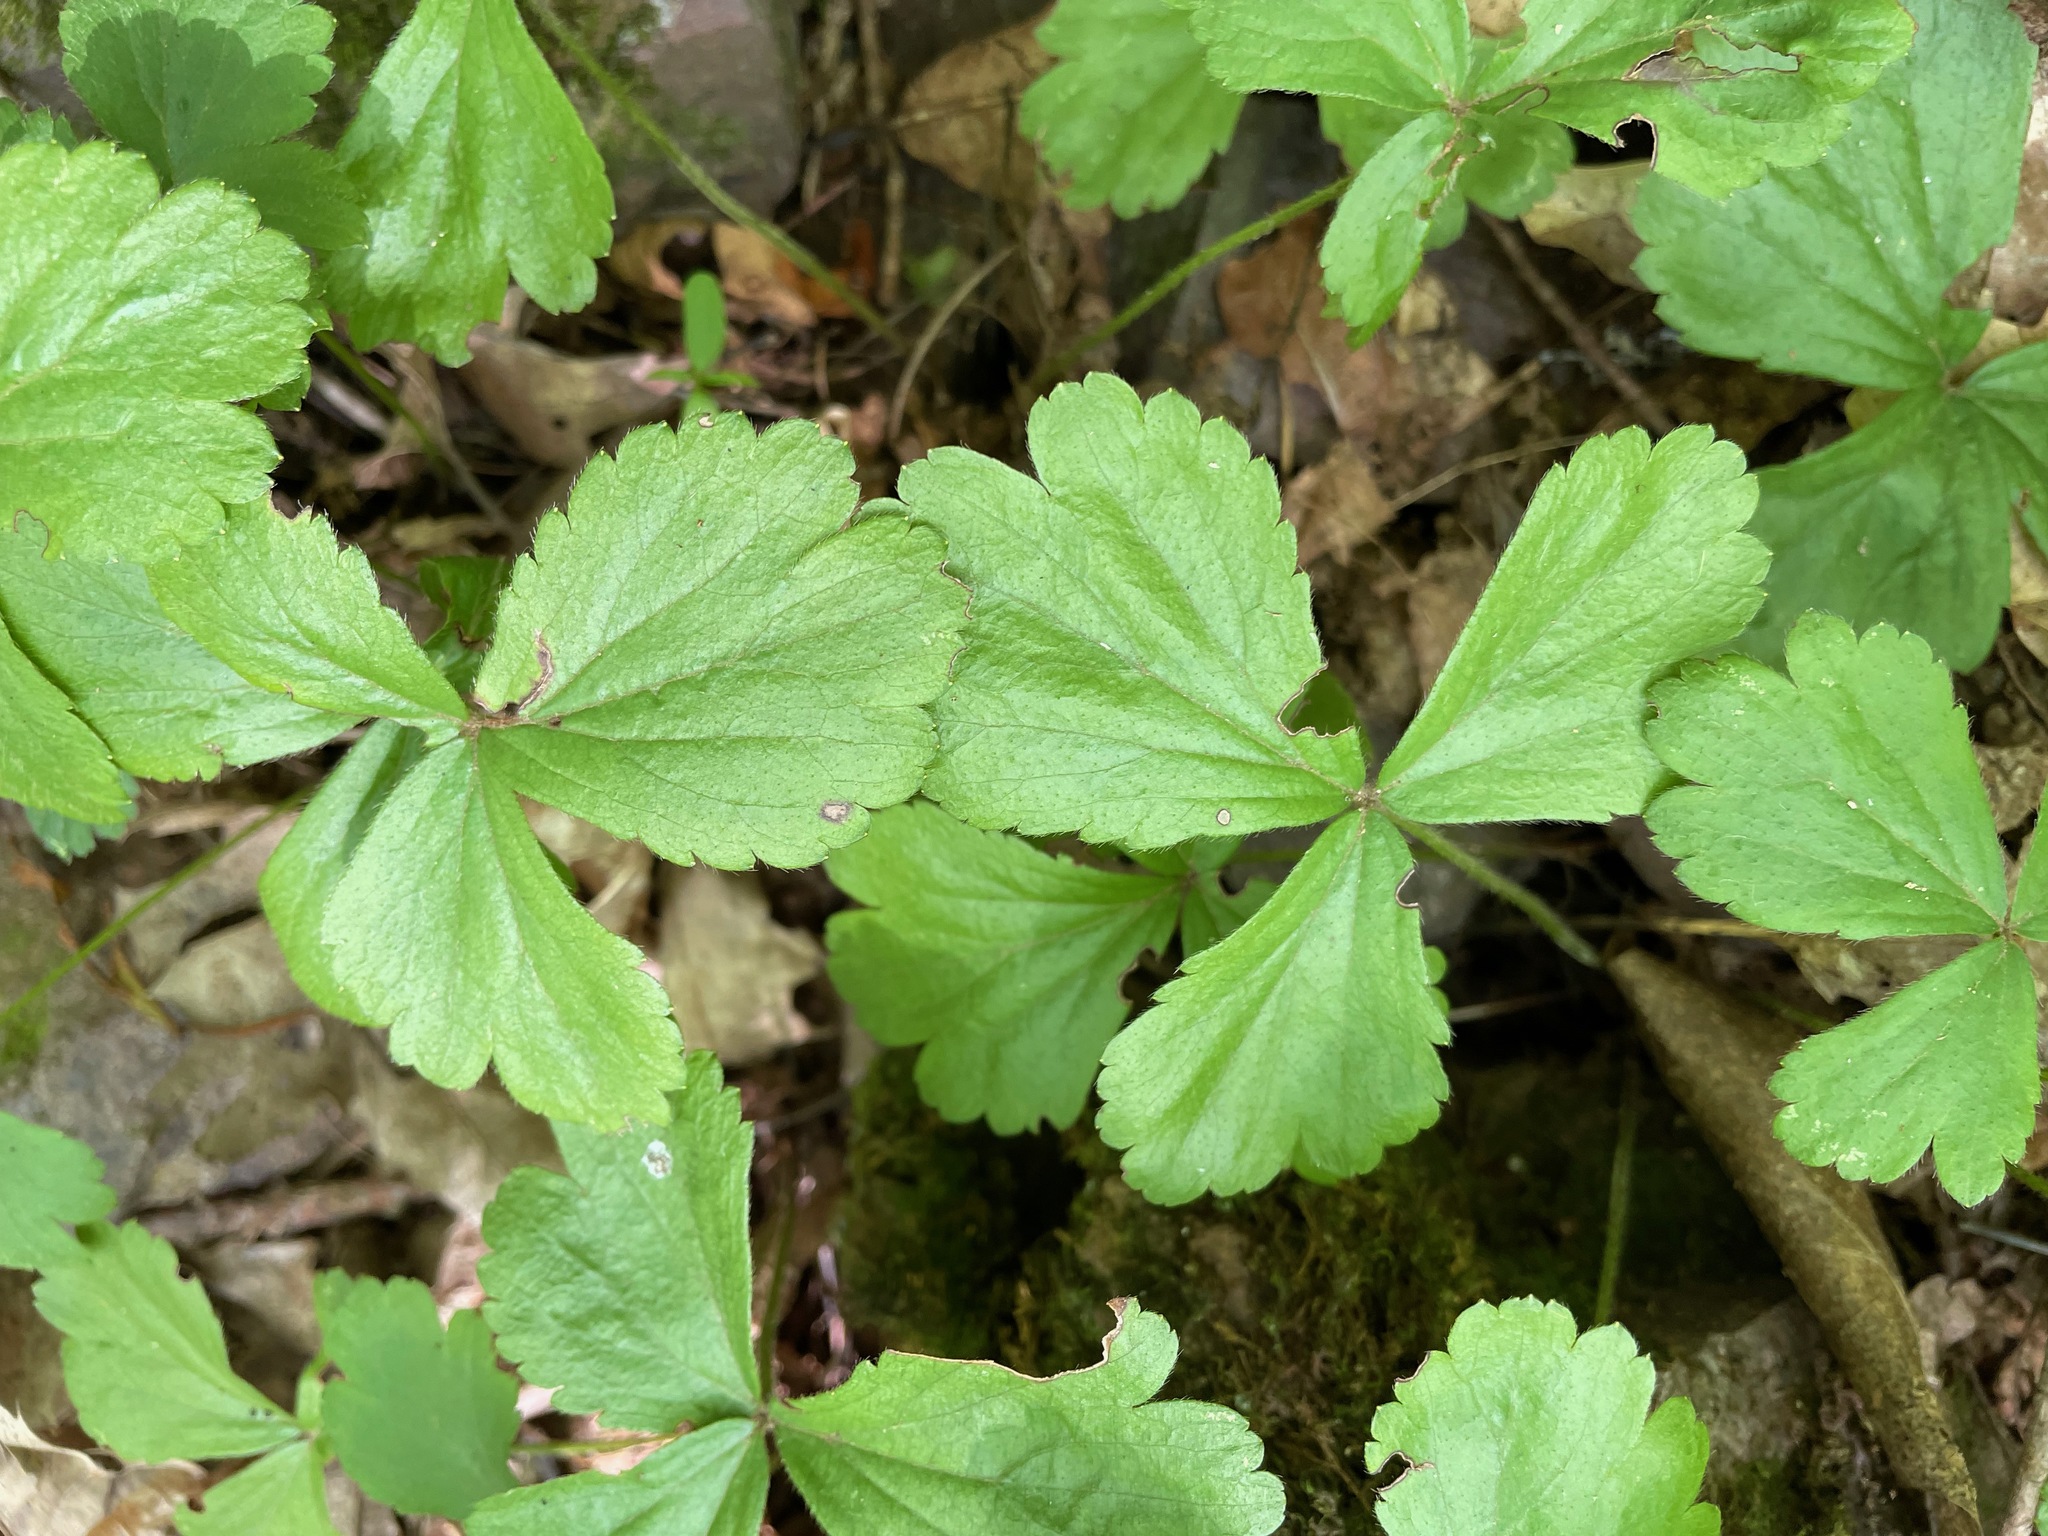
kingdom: Plantae
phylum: Tracheophyta
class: Magnoliopsida
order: Rosales
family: Rosaceae
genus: Geum
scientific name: Geum fragarioides
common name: Appalachian barren strawberry
